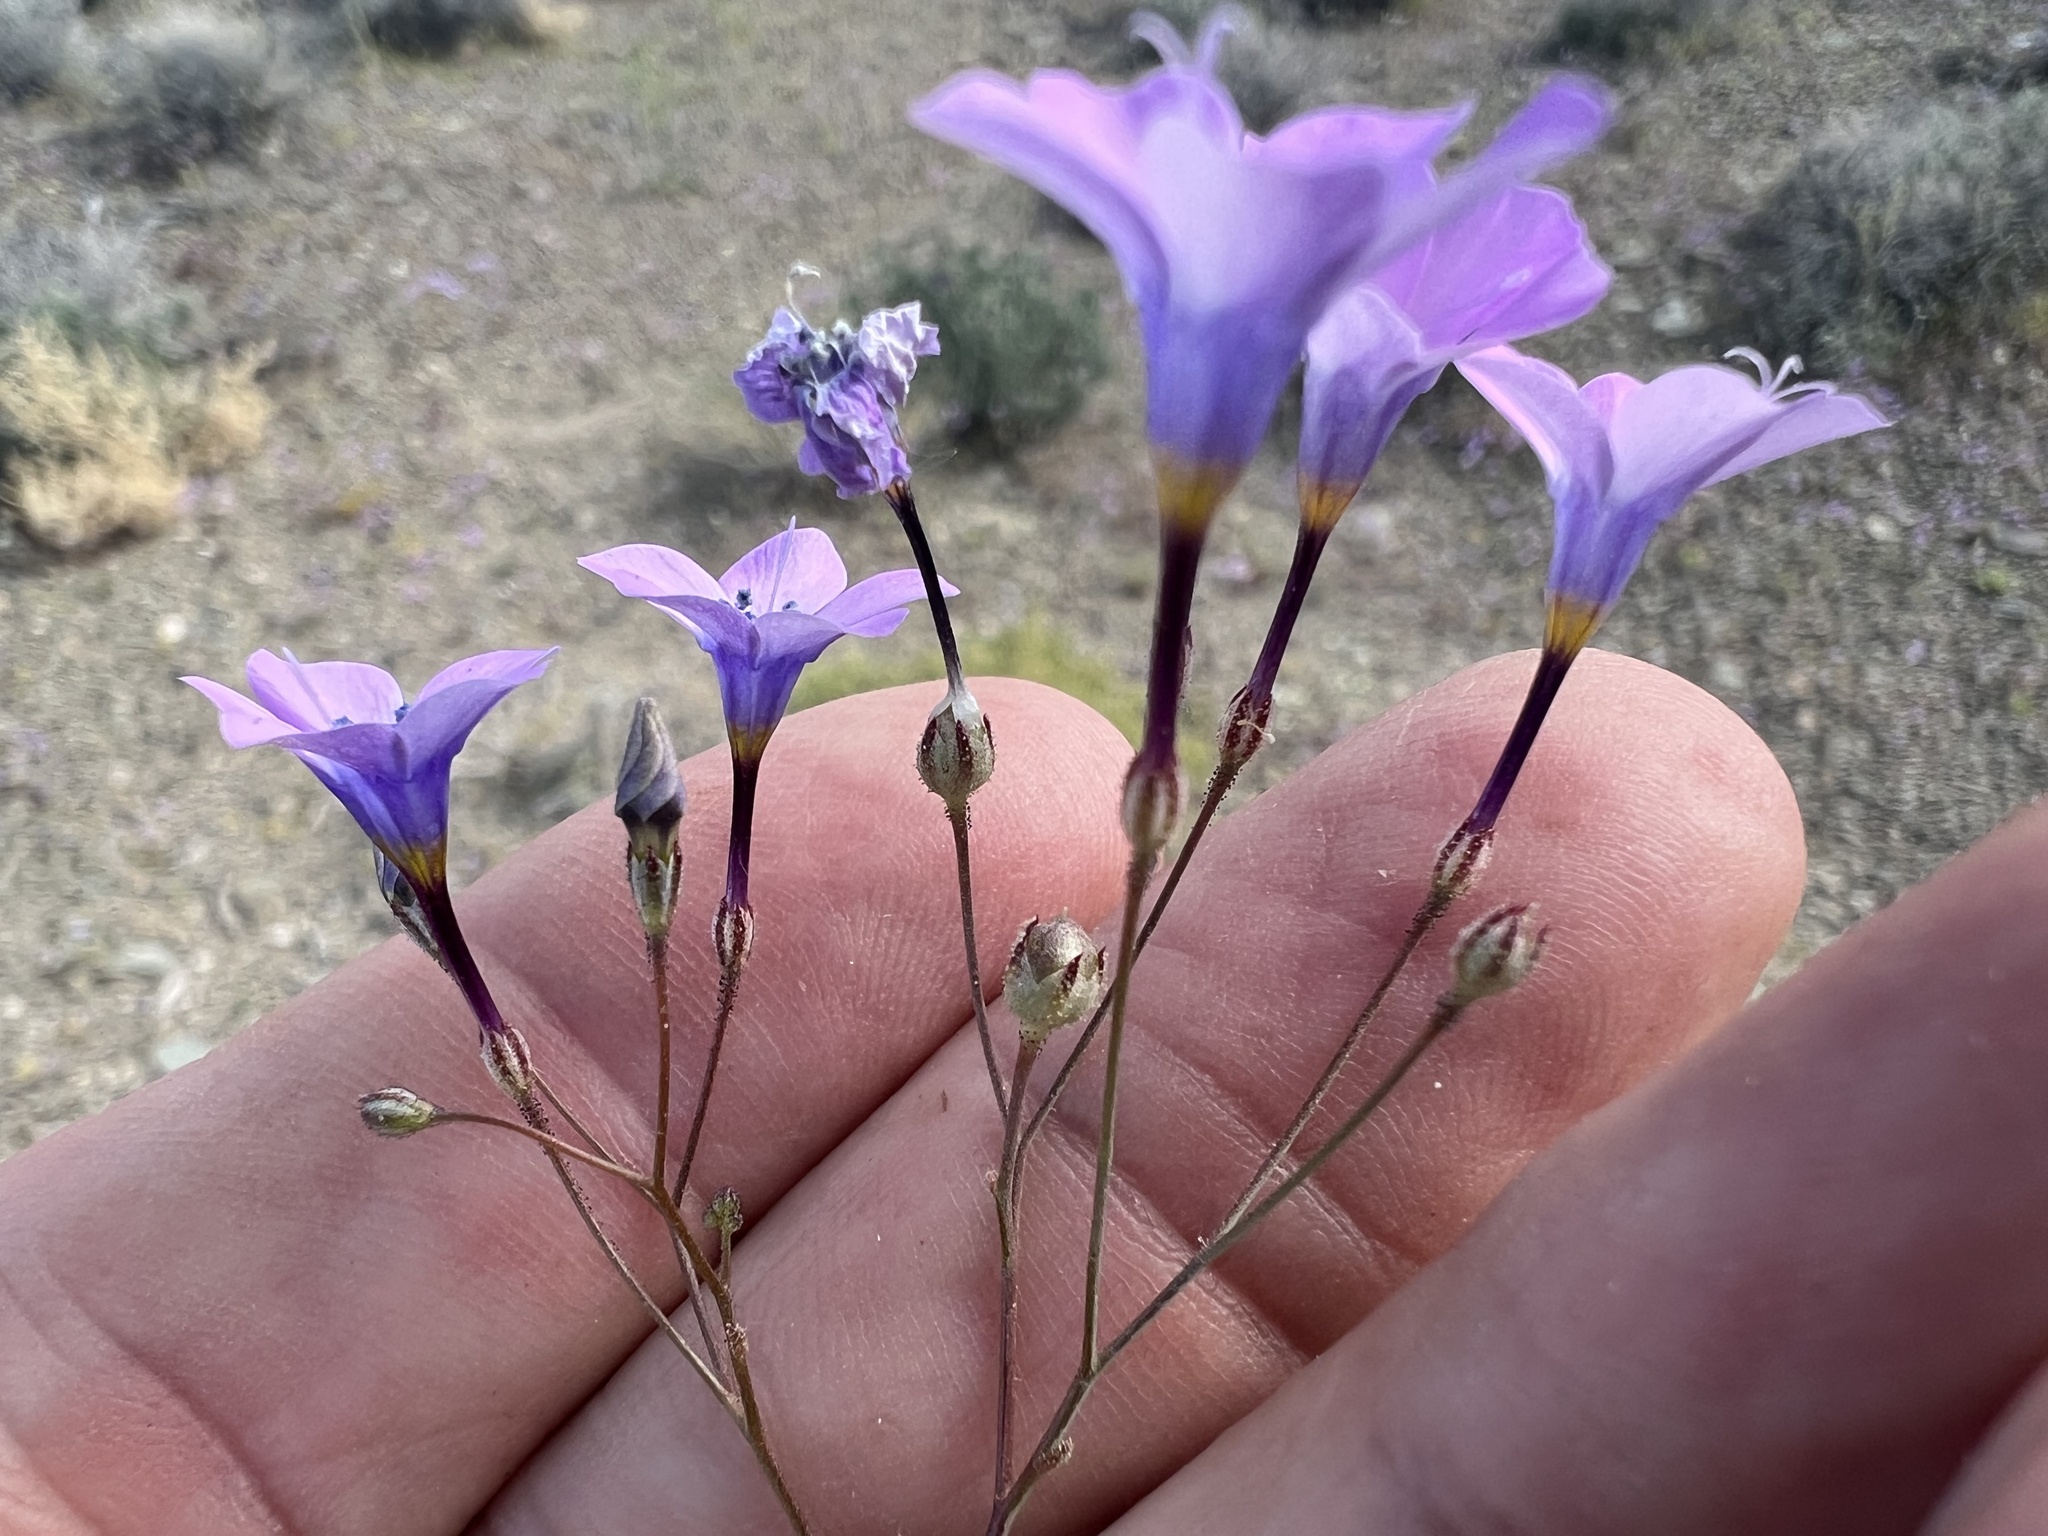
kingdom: Plantae
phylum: Tracheophyta
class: Magnoliopsida
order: Ericales
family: Polemoniaceae
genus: Gilia
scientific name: Gilia cana
